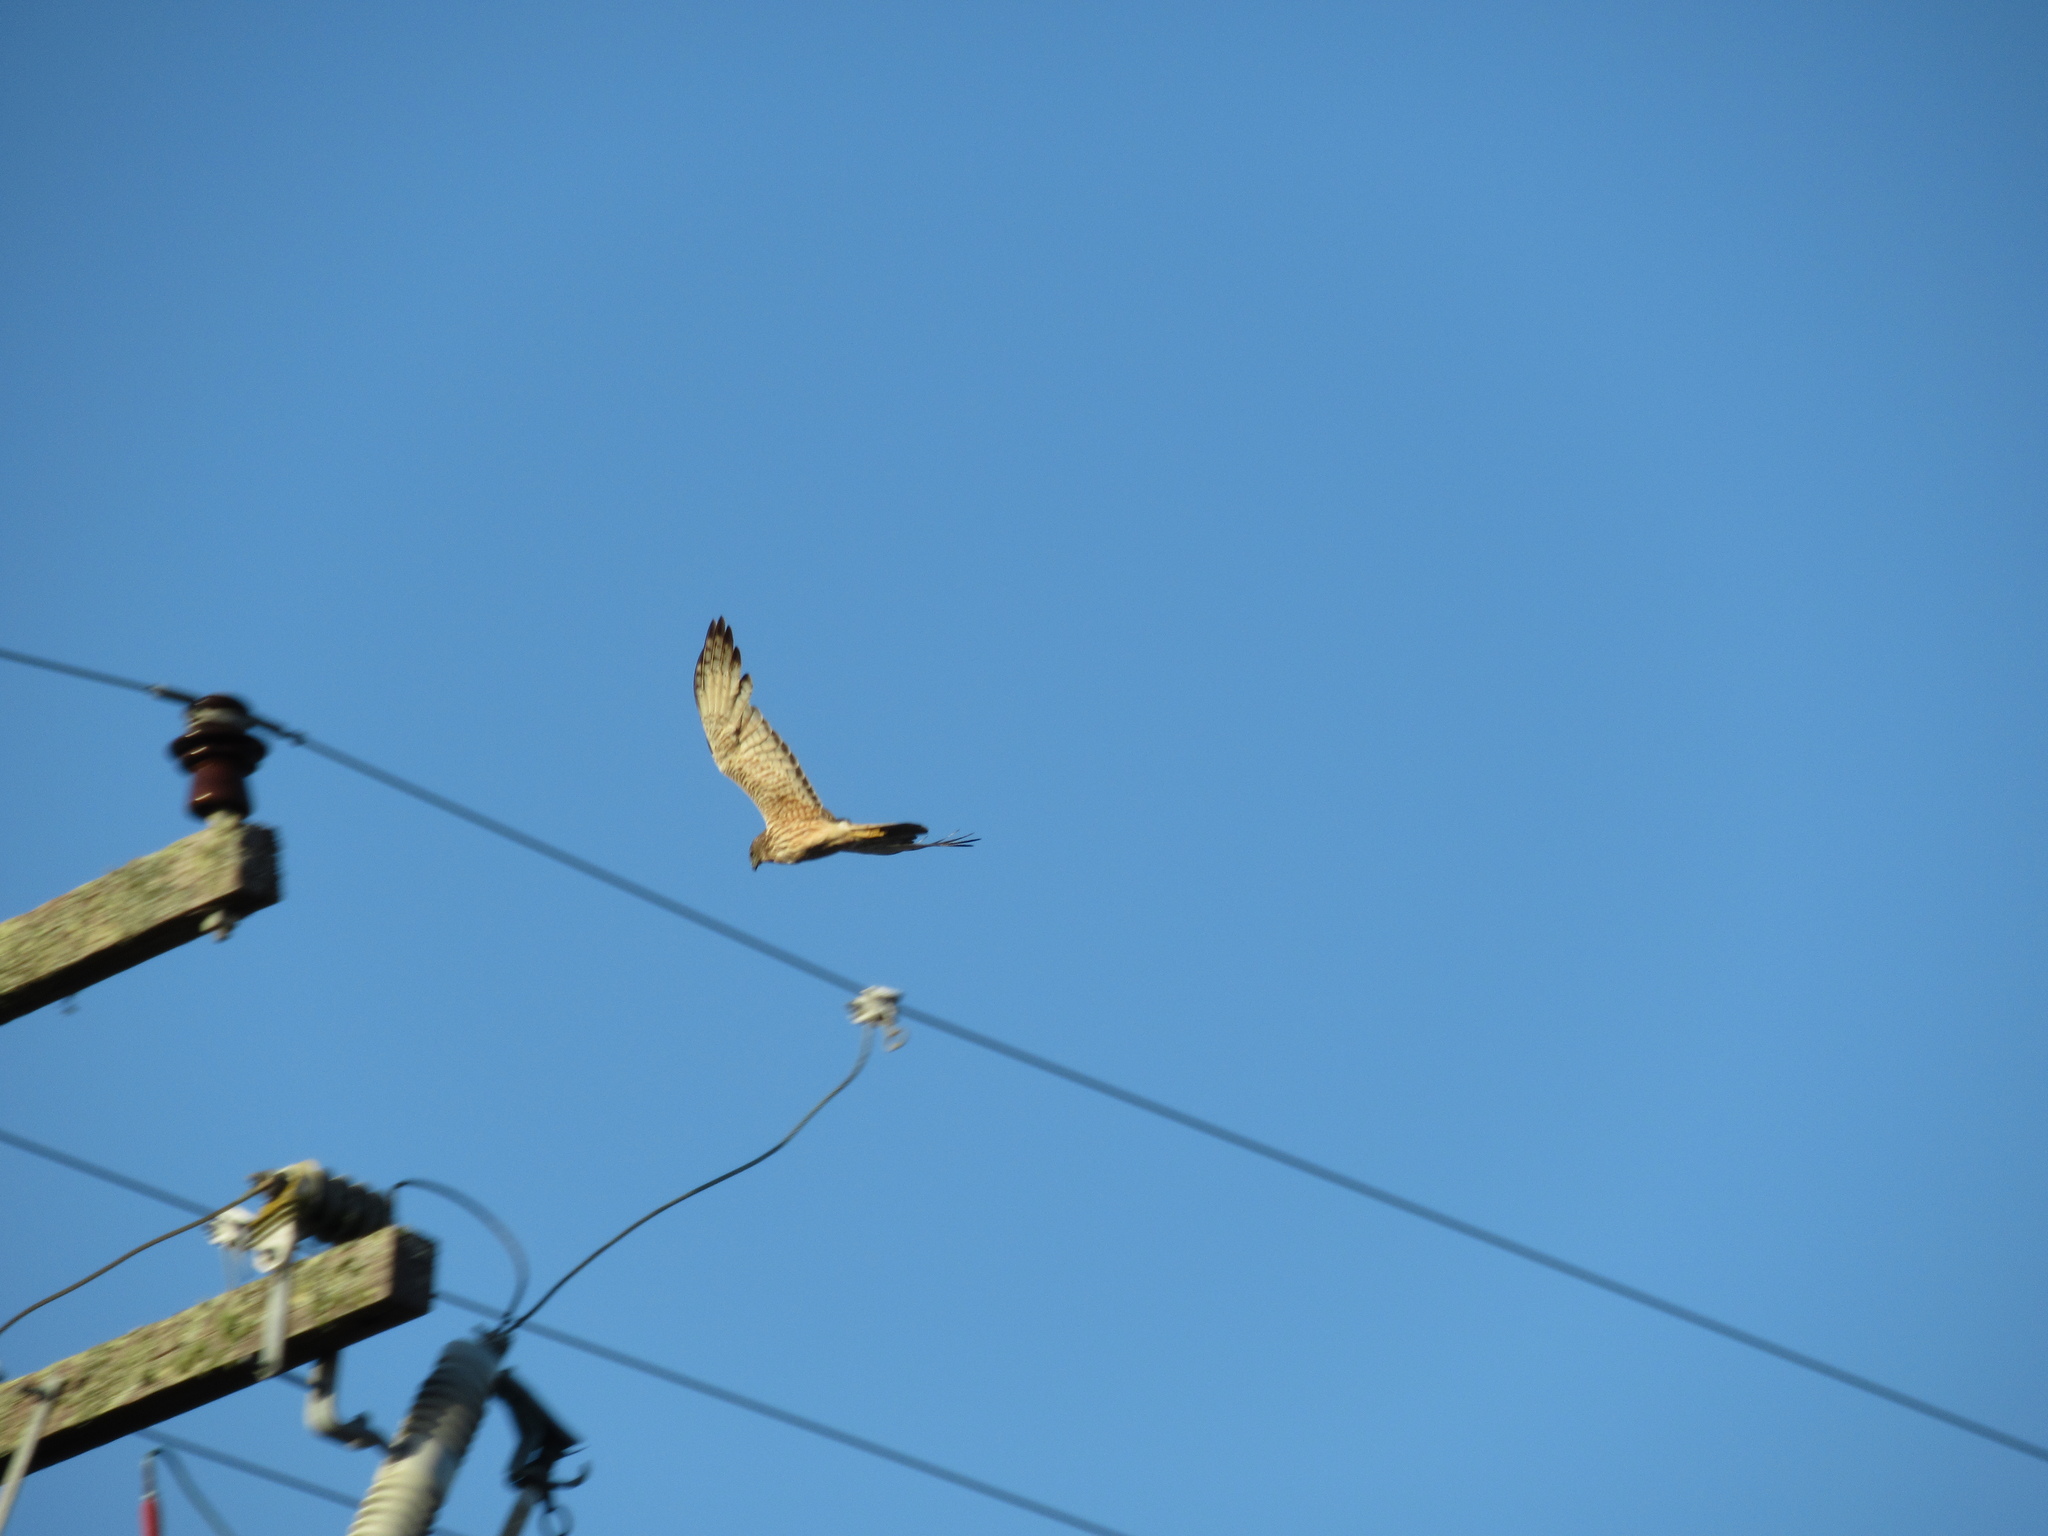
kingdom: Animalia
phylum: Chordata
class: Aves
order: Accipitriformes
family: Accipitridae
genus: Circus
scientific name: Circus approximans
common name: Swamp harrier
